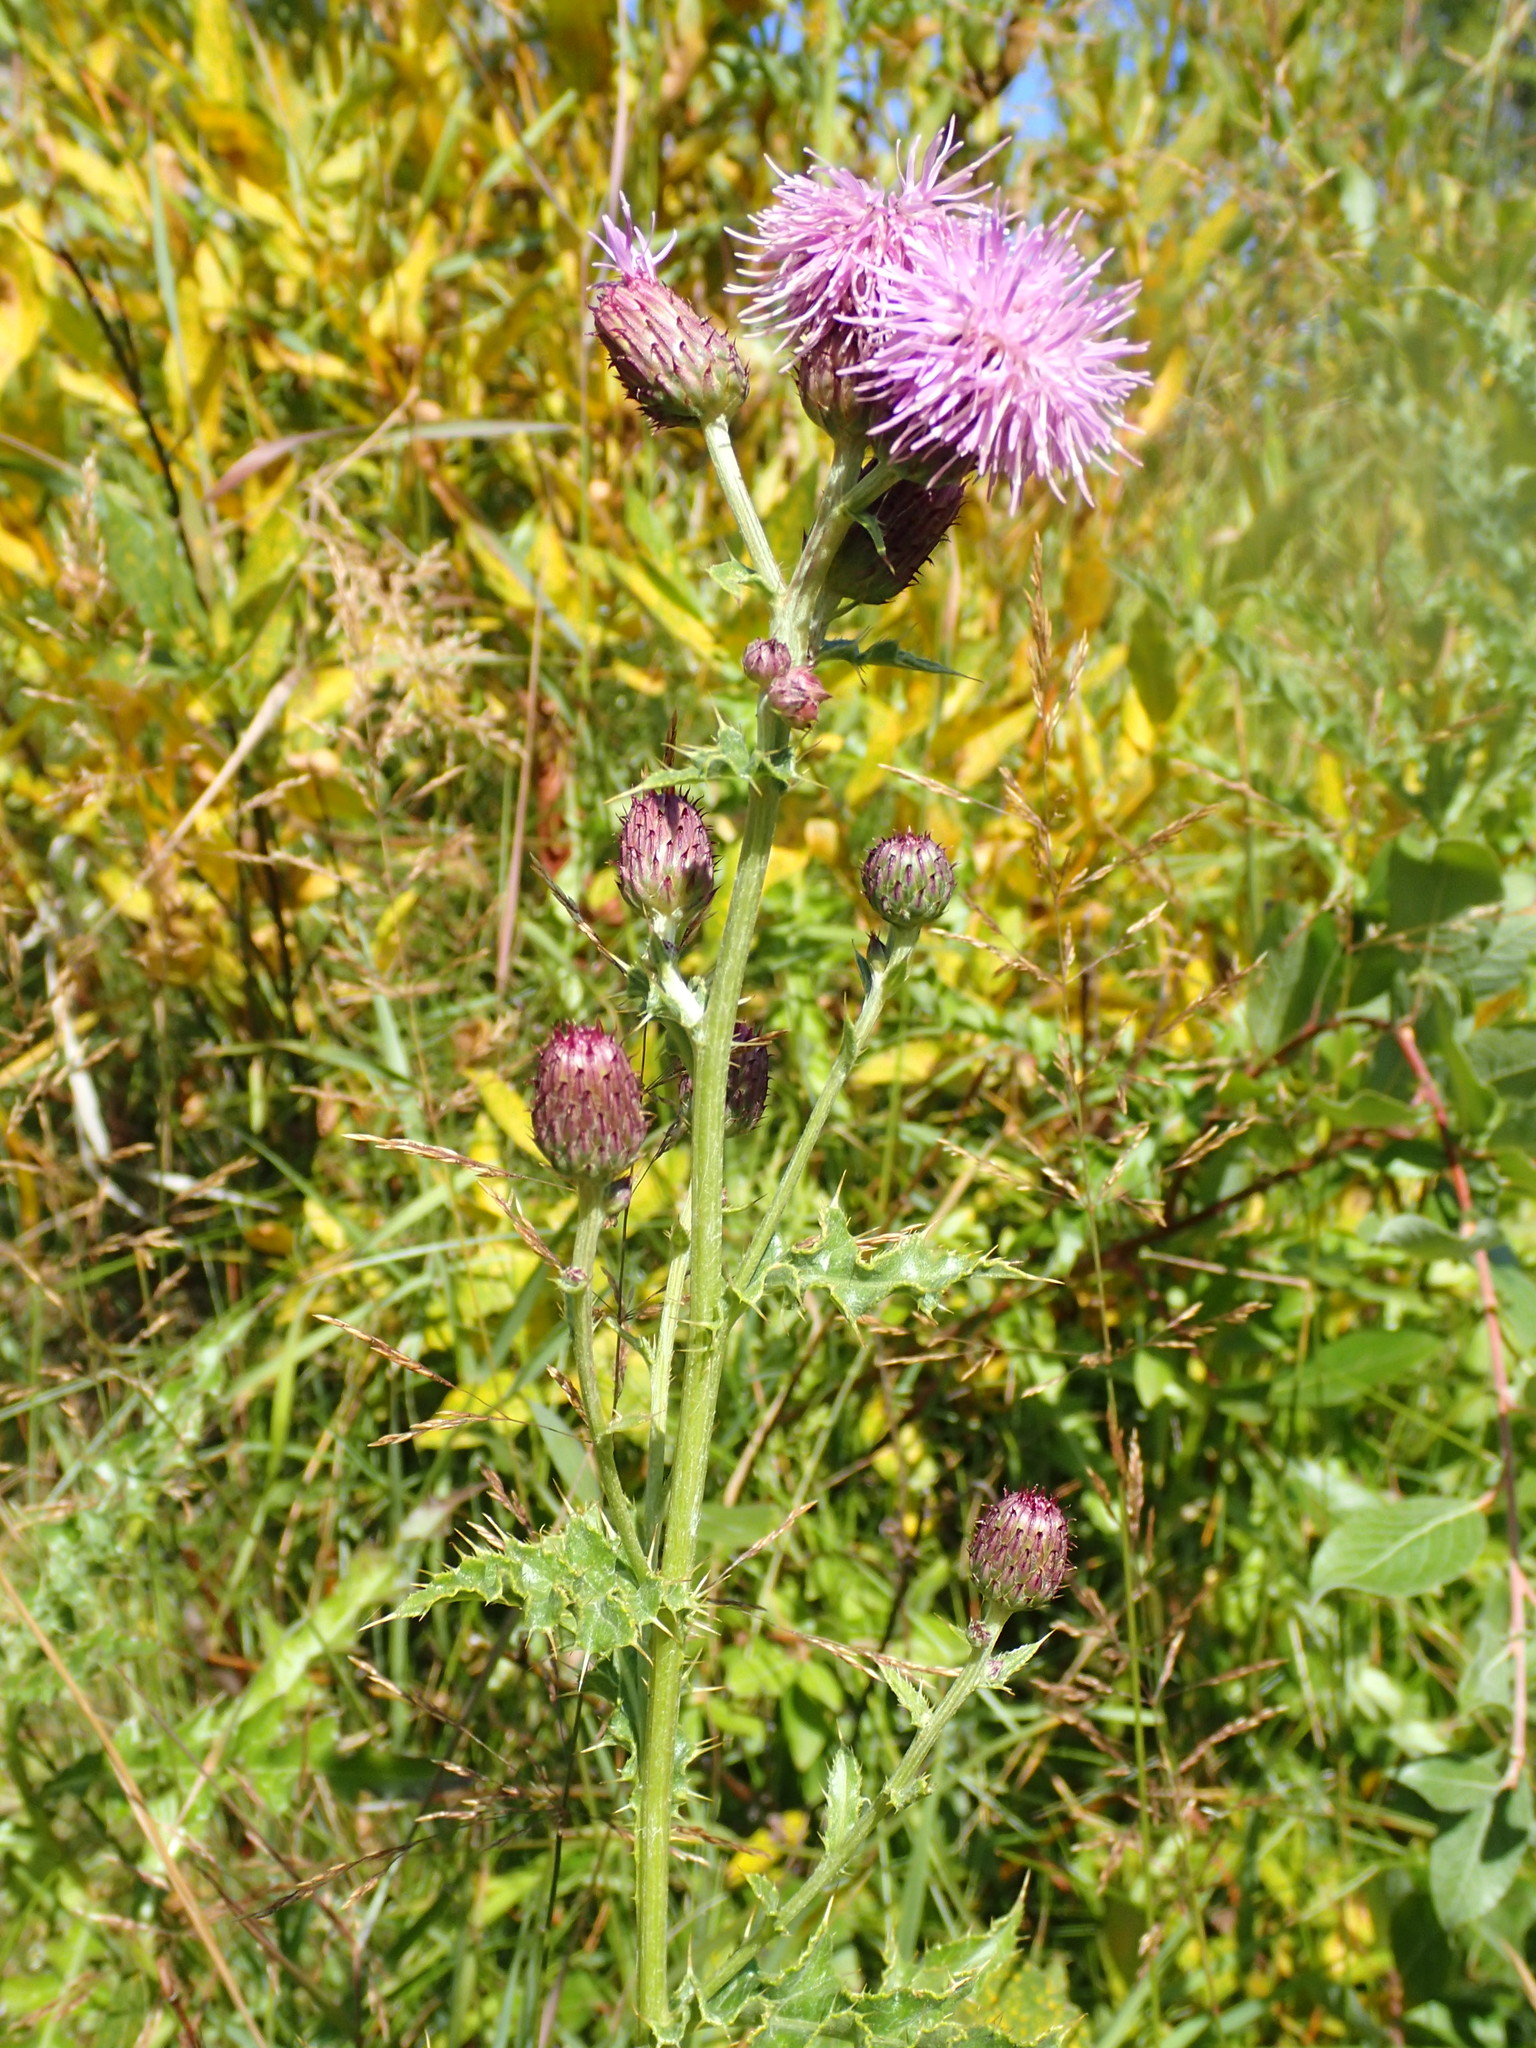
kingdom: Plantae
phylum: Tracheophyta
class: Magnoliopsida
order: Asterales
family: Asteraceae
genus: Cirsium
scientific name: Cirsium arvense
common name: Creeping thistle
